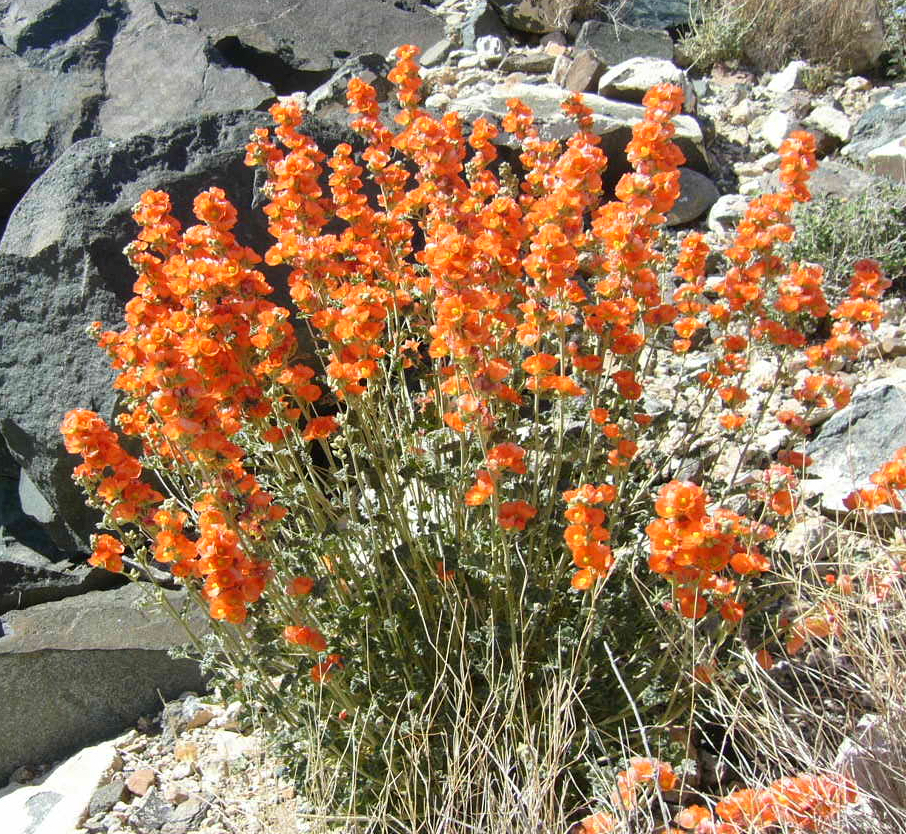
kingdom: Plantae
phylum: Tracheophyta
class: Magnoliopsida
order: Malvales
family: Malvaceae
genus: Sphaeralcea
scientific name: Sphaeralcea ambigua
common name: Apricot globe-mallow
